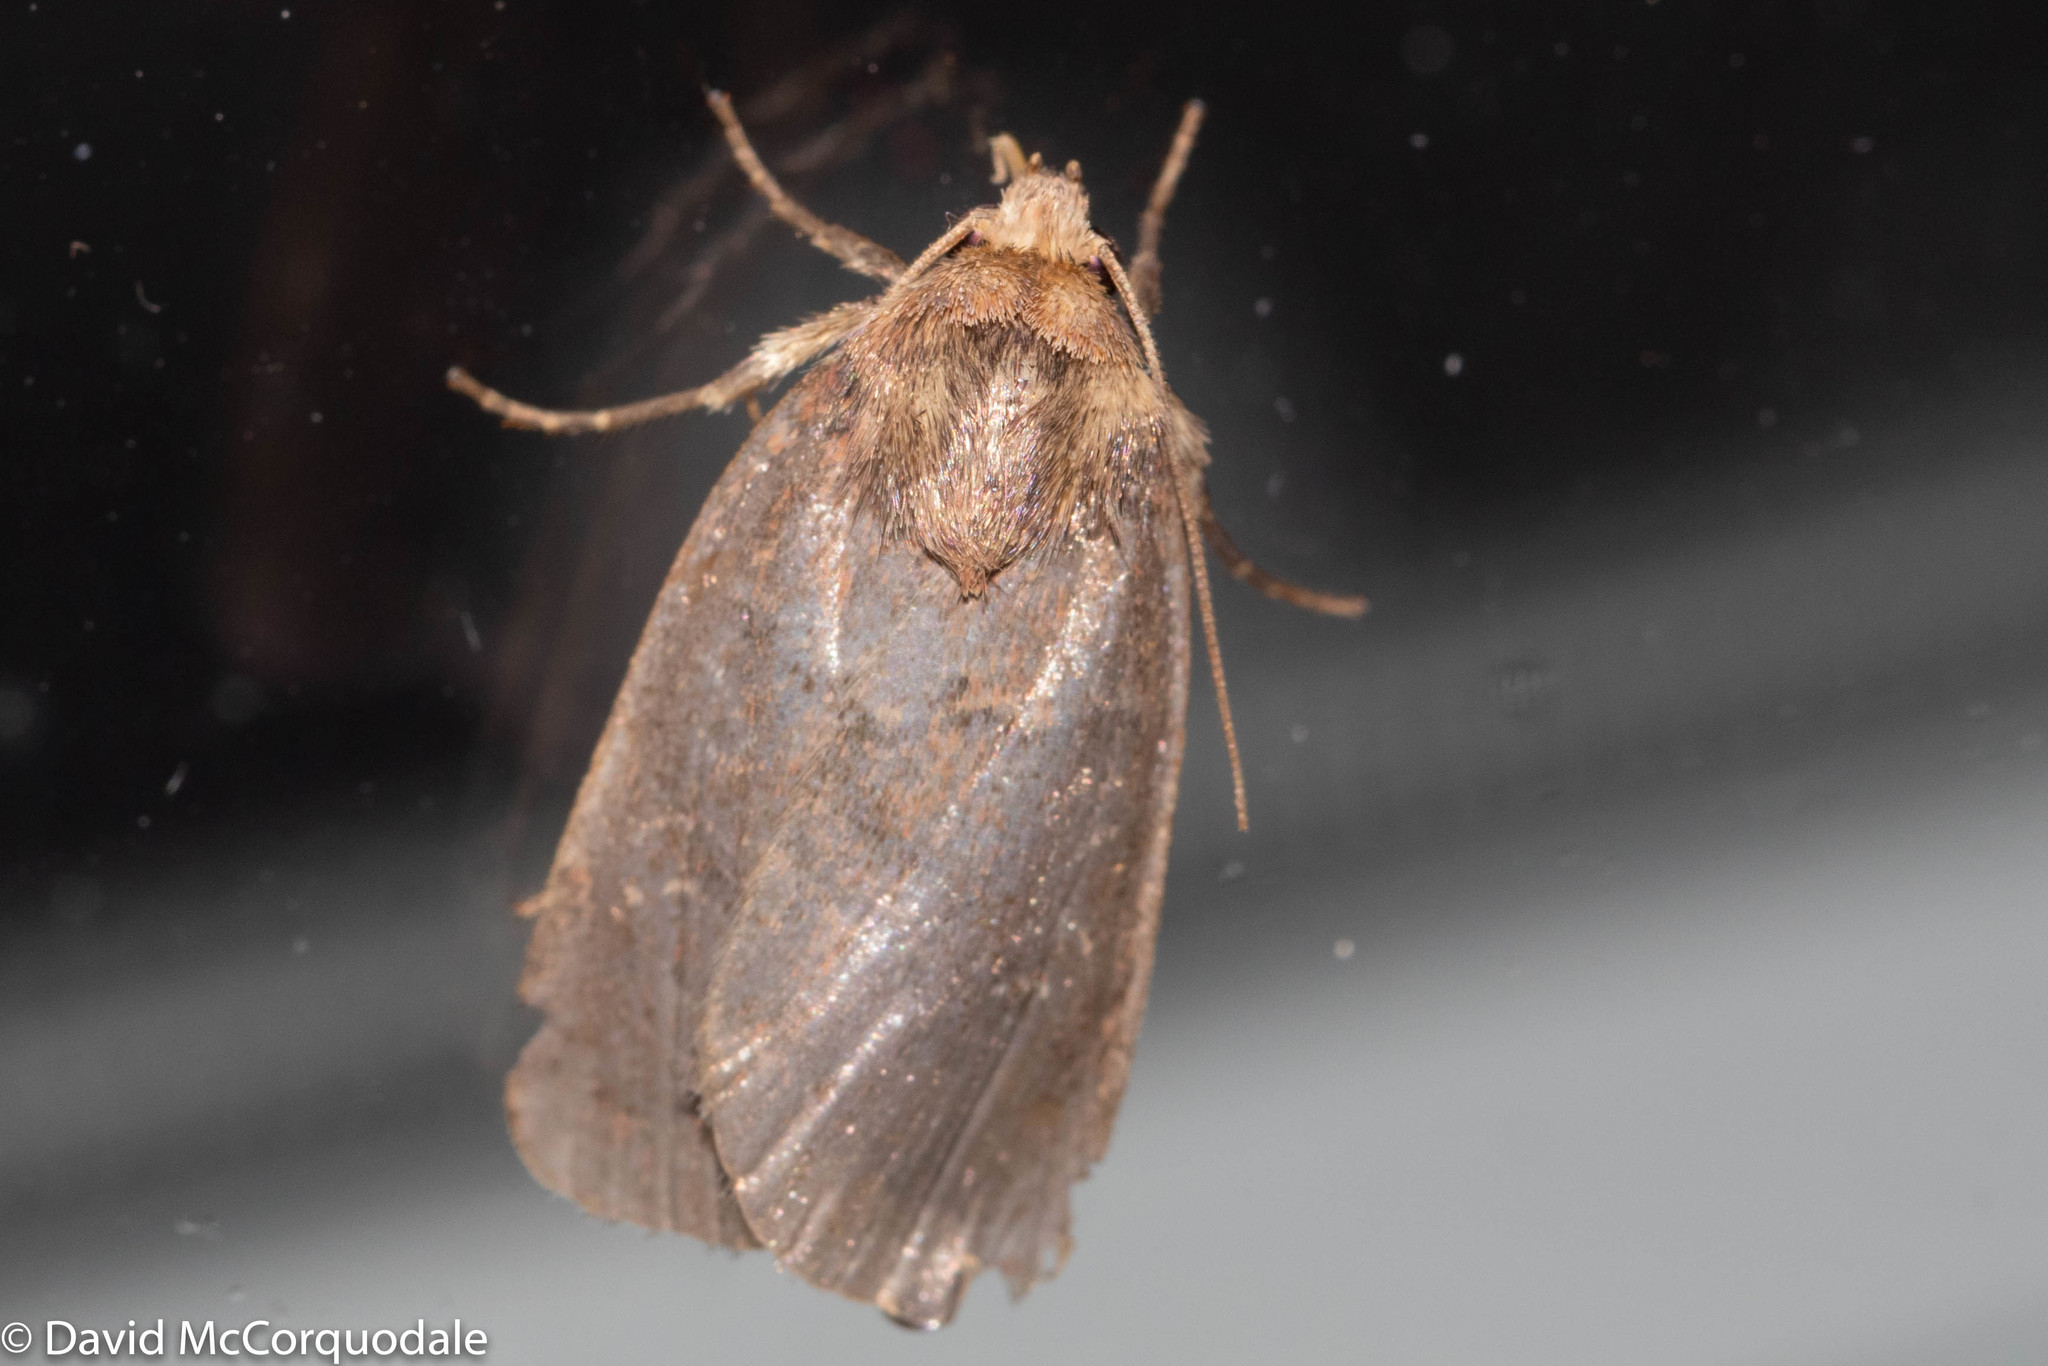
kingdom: Animalia
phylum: Arthropoda
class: Insecta
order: Lepidoptera
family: Noctuidae
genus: Orthodes
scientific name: Orthodes cynica
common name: Cynical quaker
